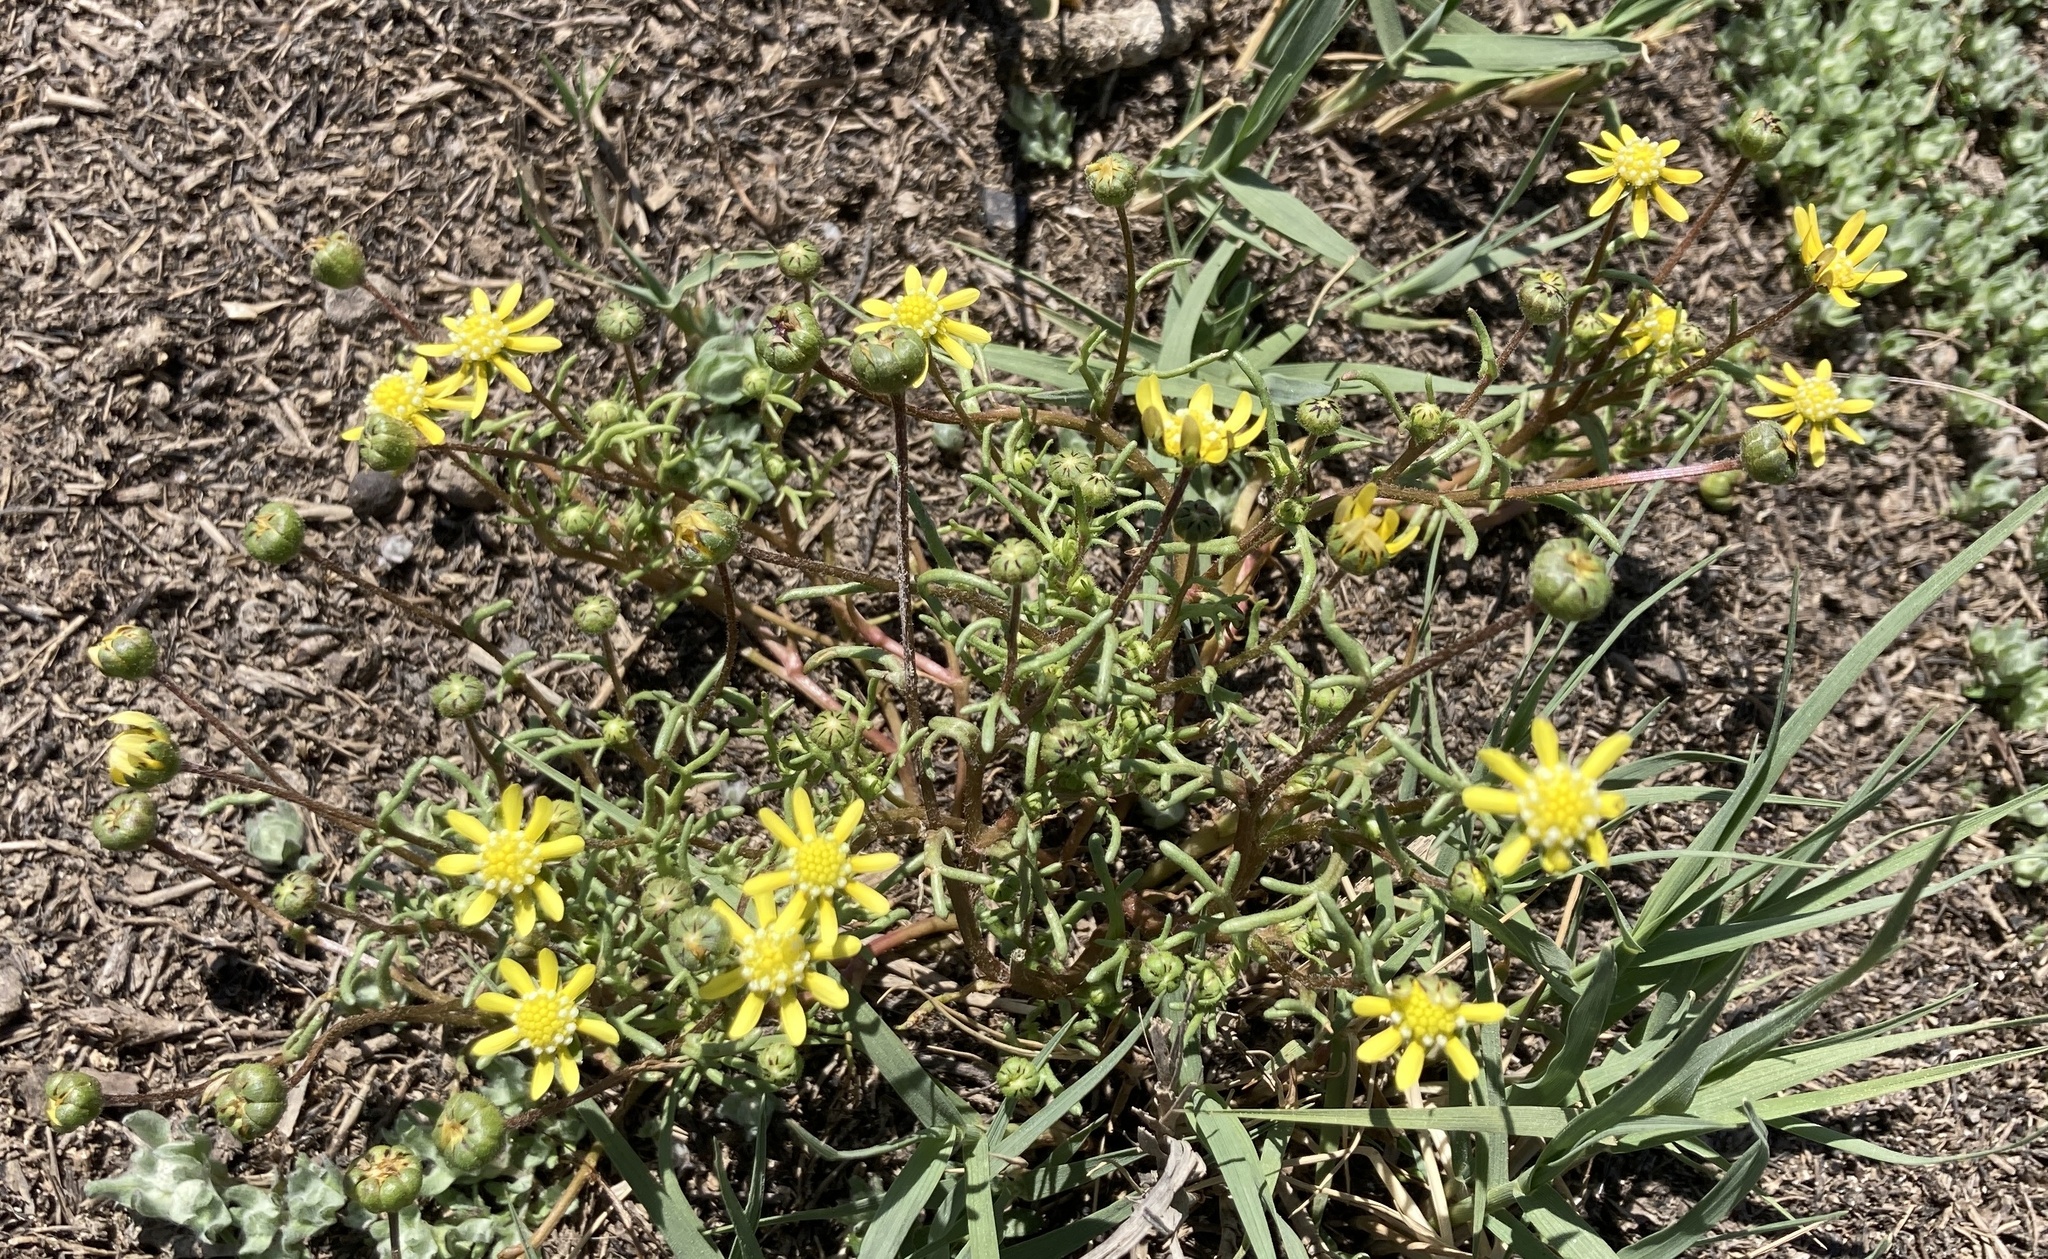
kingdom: Plantae
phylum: Tracheophyta
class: Magnoliopsida
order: Asterales
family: Asteraceae
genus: Blennosperma
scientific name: Blennosperma nanum
